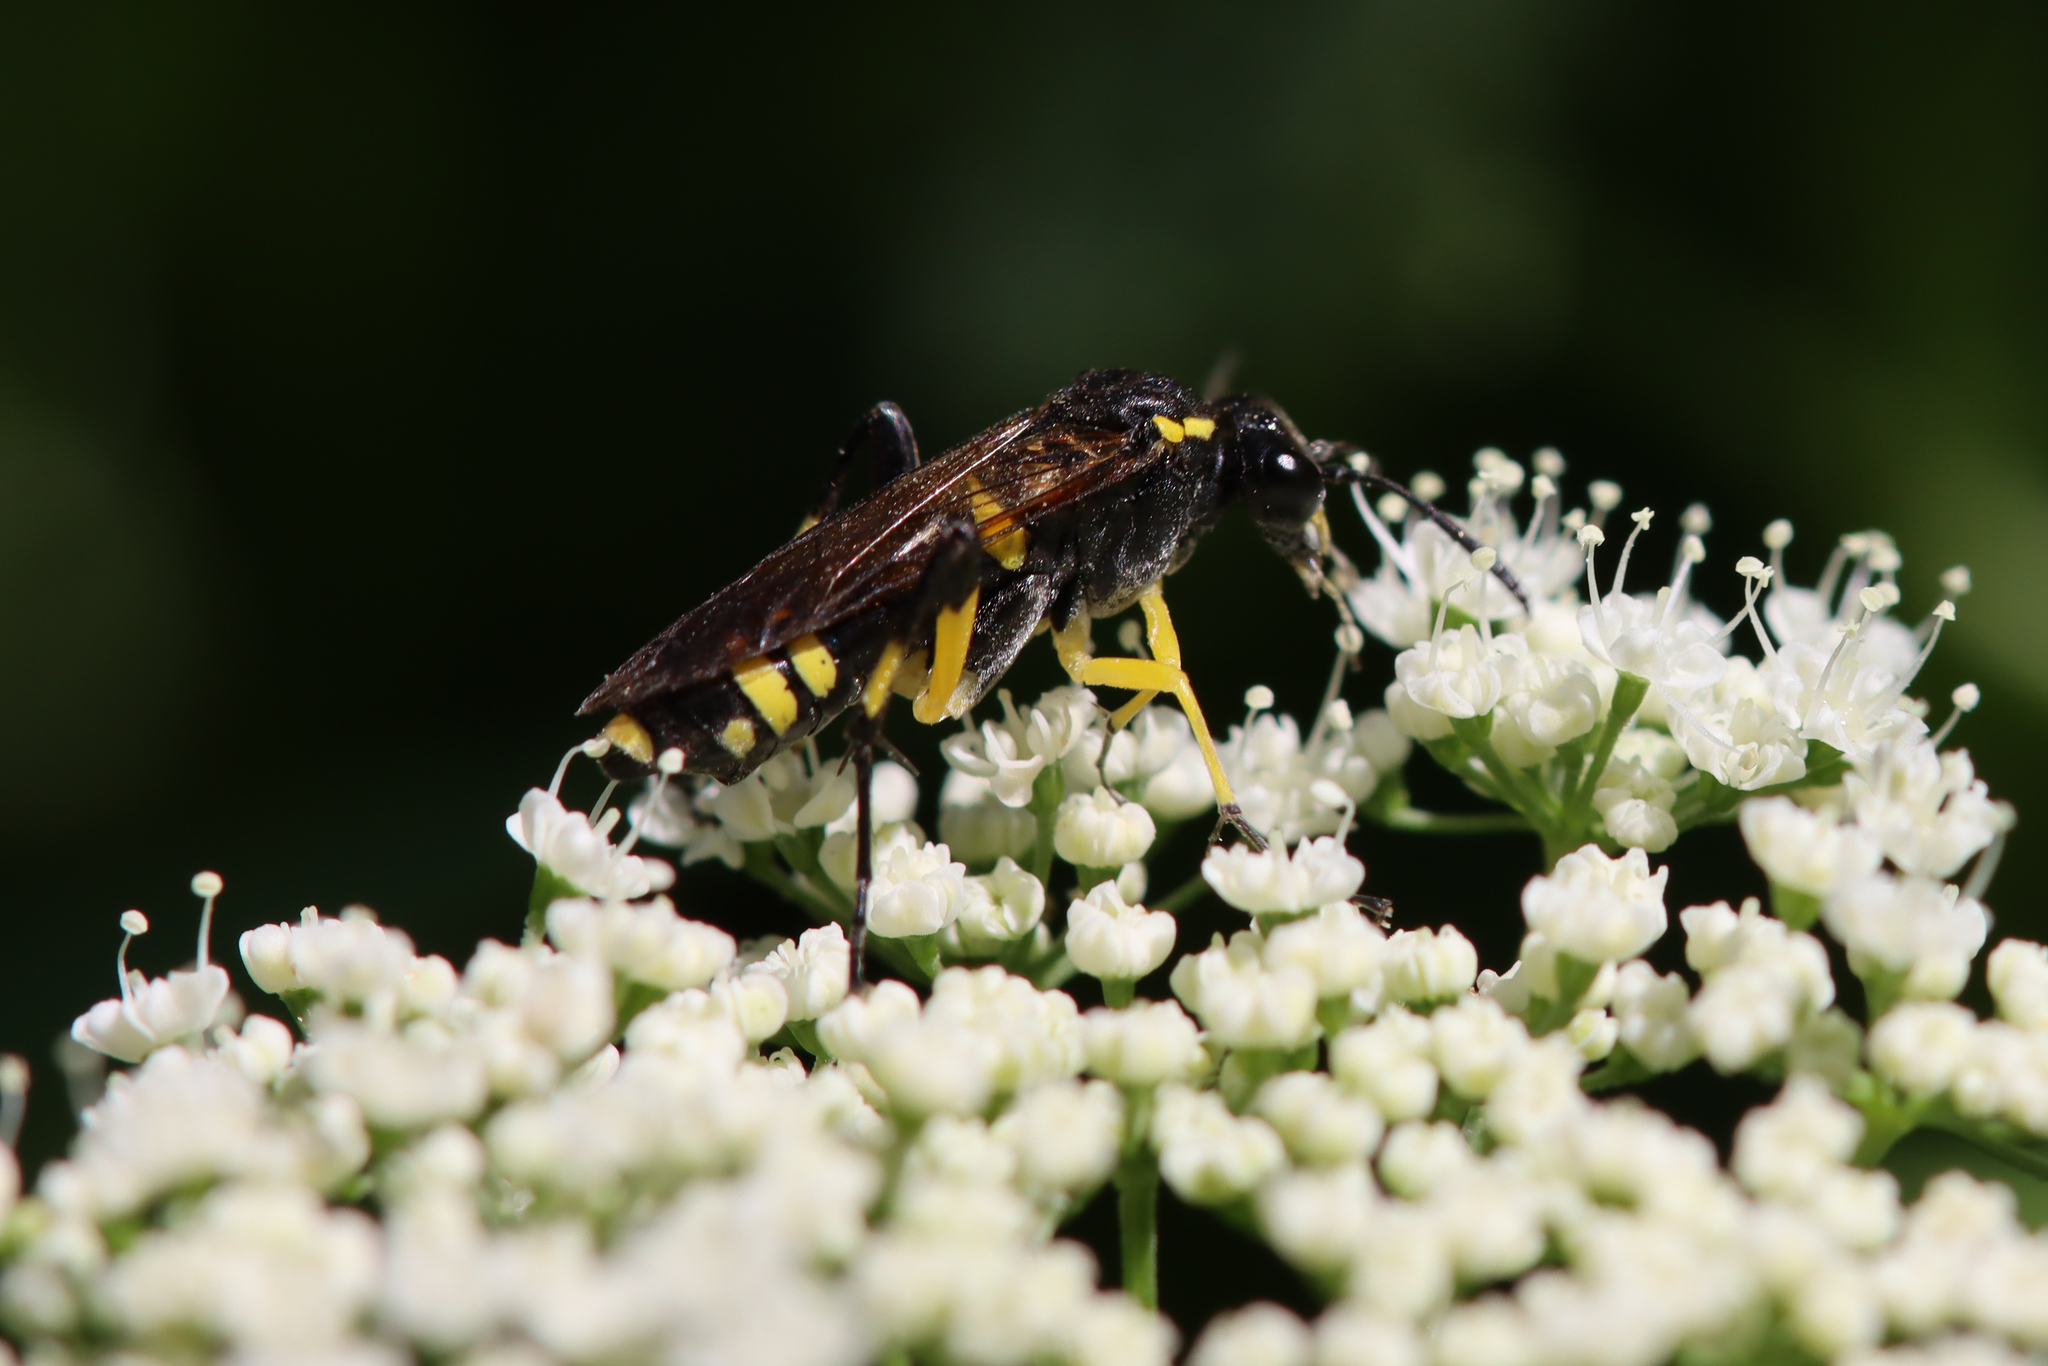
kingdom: Animalia
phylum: Arthropoda
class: Insecta
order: Hymenoptera
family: Tenthredinidae
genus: Macrophya
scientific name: Macrophya montana
